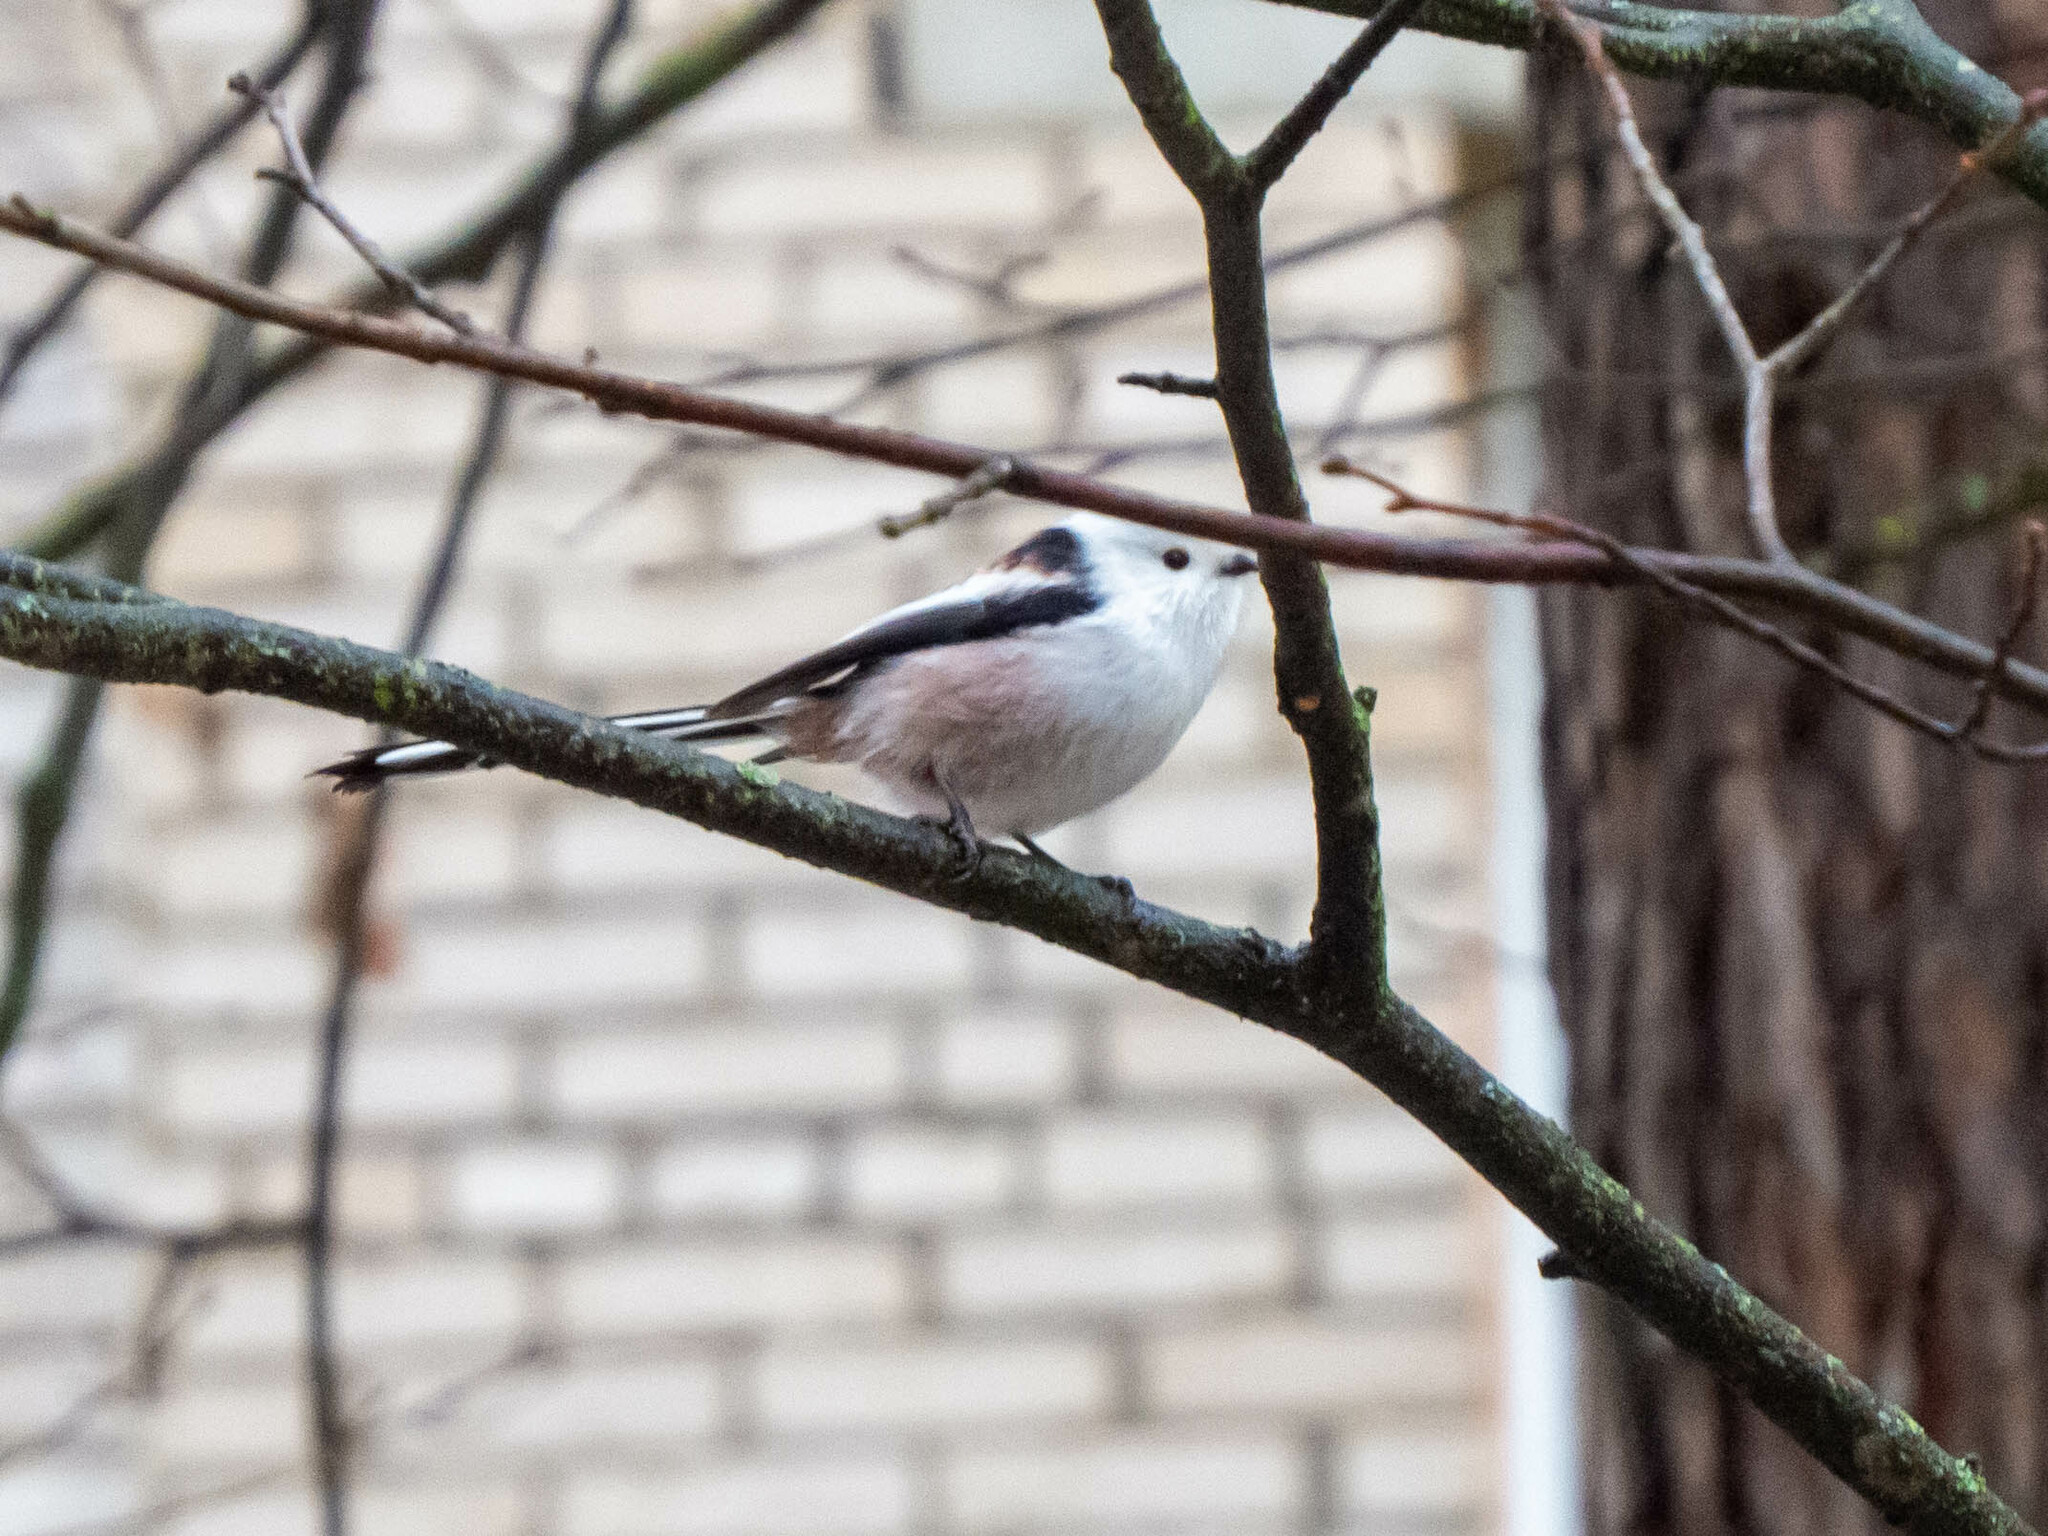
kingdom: Animalia
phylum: Chordata
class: Aves
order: Passeriformes
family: Aegithalidae
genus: Aegithalos
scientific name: Aegithalos caudatus
